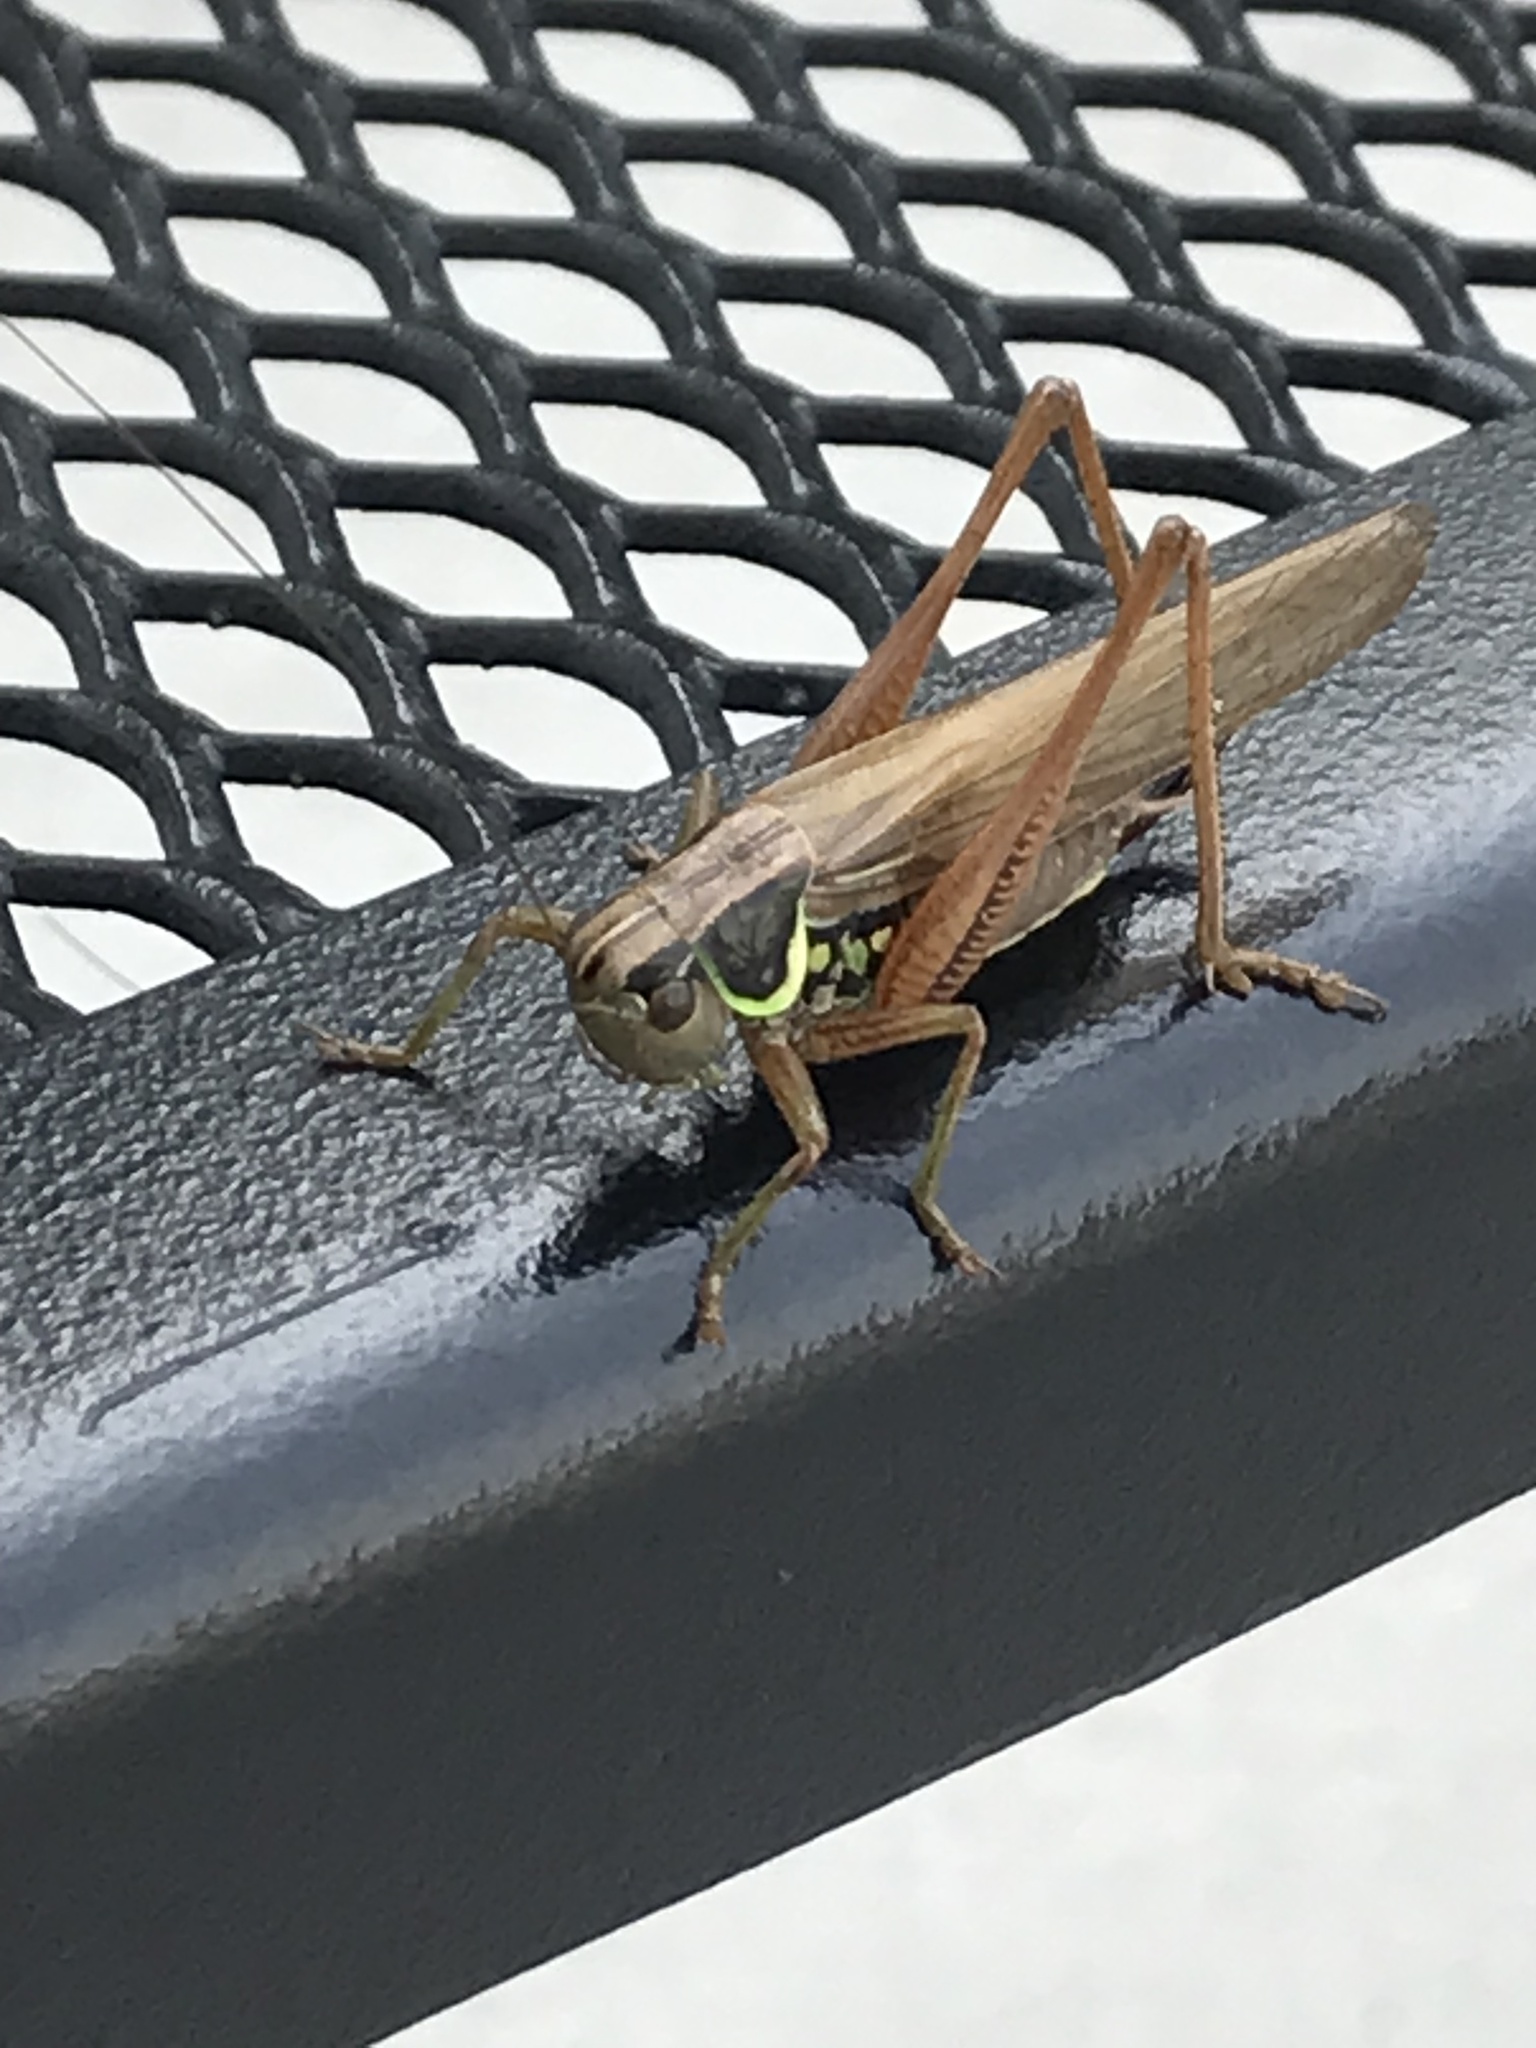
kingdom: Animalia
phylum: Arthropoda
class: Insecta
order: Orthoptera
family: Tettigoniidae
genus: Roeseliana
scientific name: Roeseliana roeselii
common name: Roesel's bush cricket
